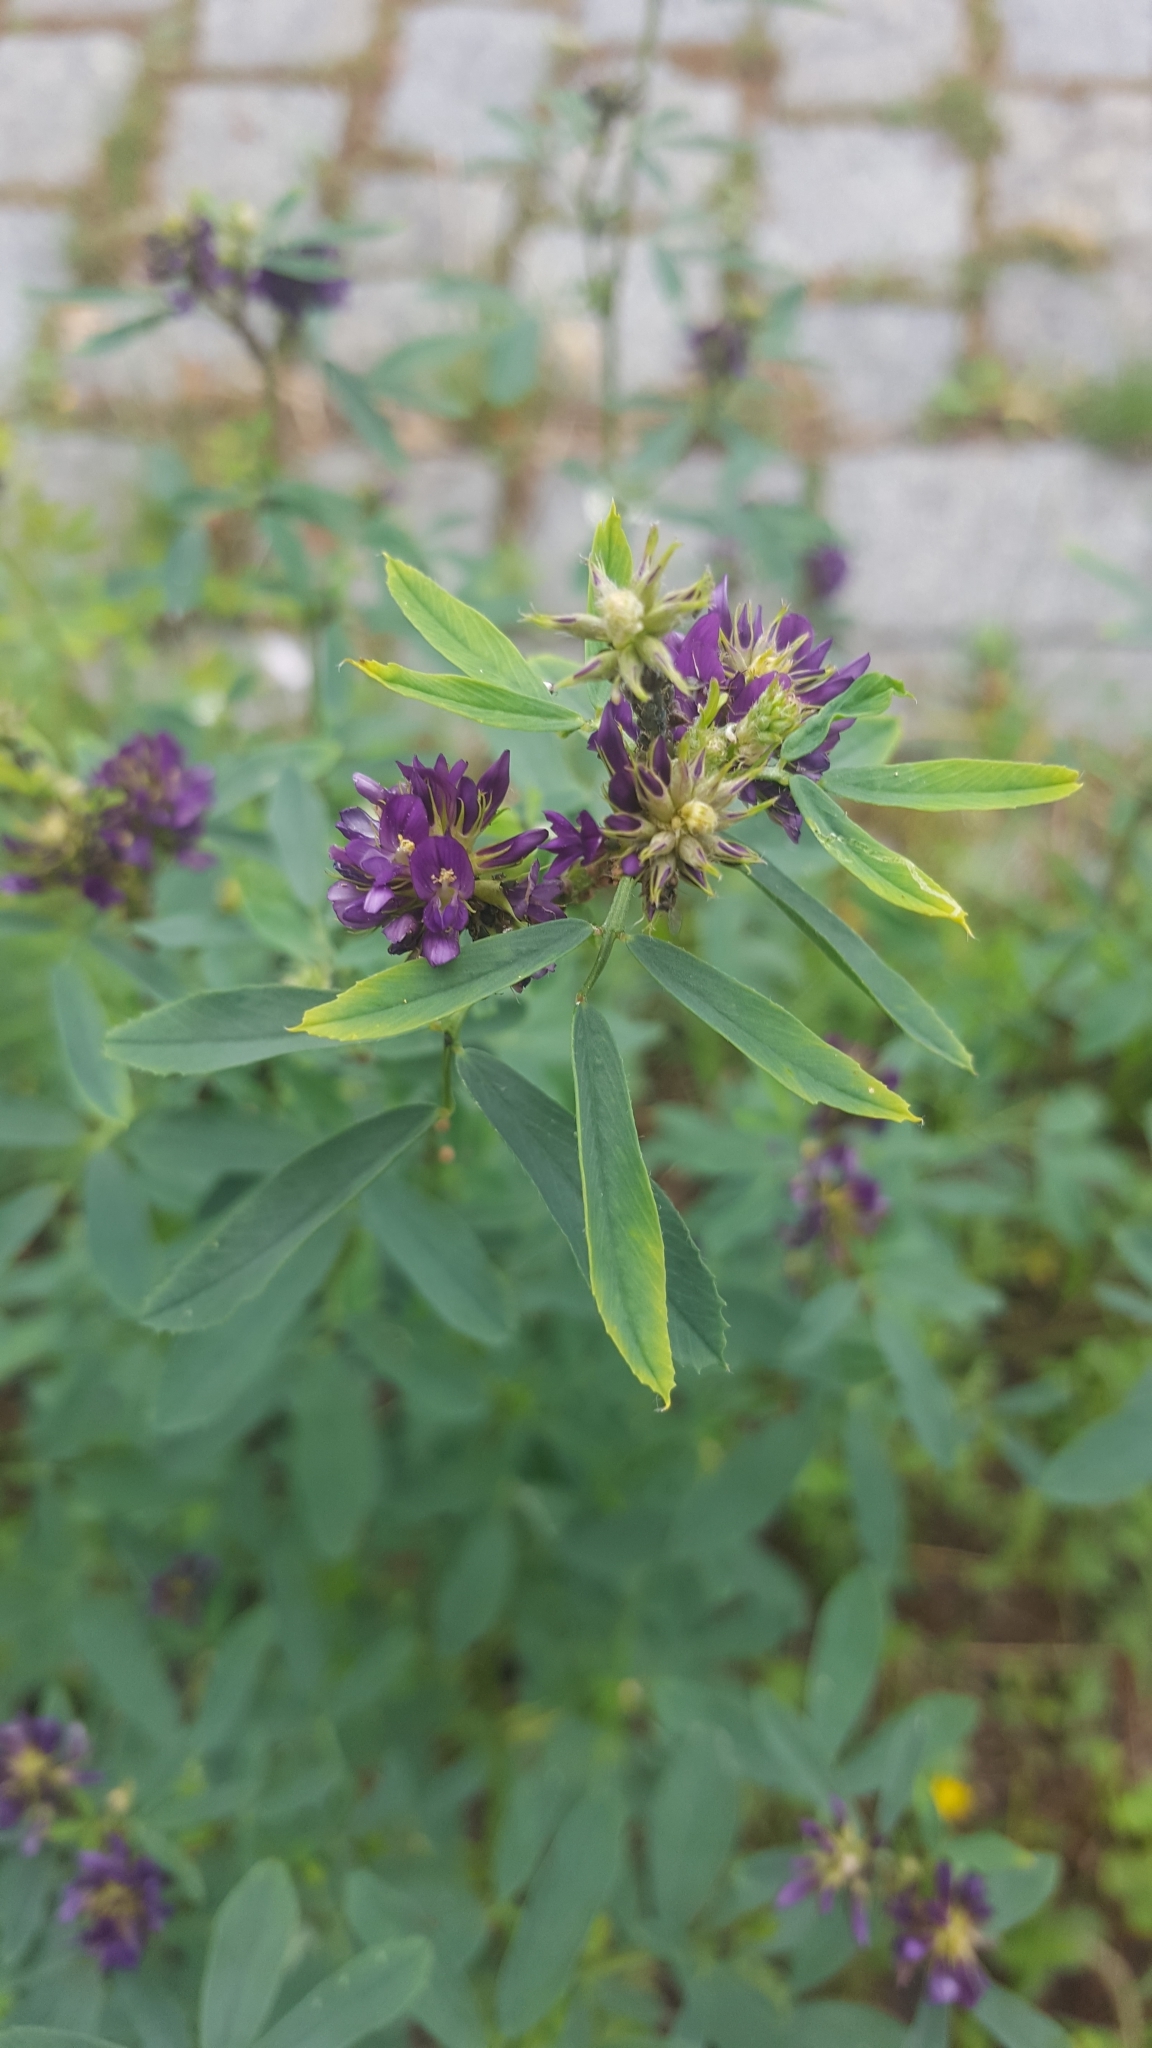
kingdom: Plantae
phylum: Tracheophyta
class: Magnoliopsida
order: Fabales
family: Fabaceae
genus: Medicago
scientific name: Medicago sativa
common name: Alfalfa
